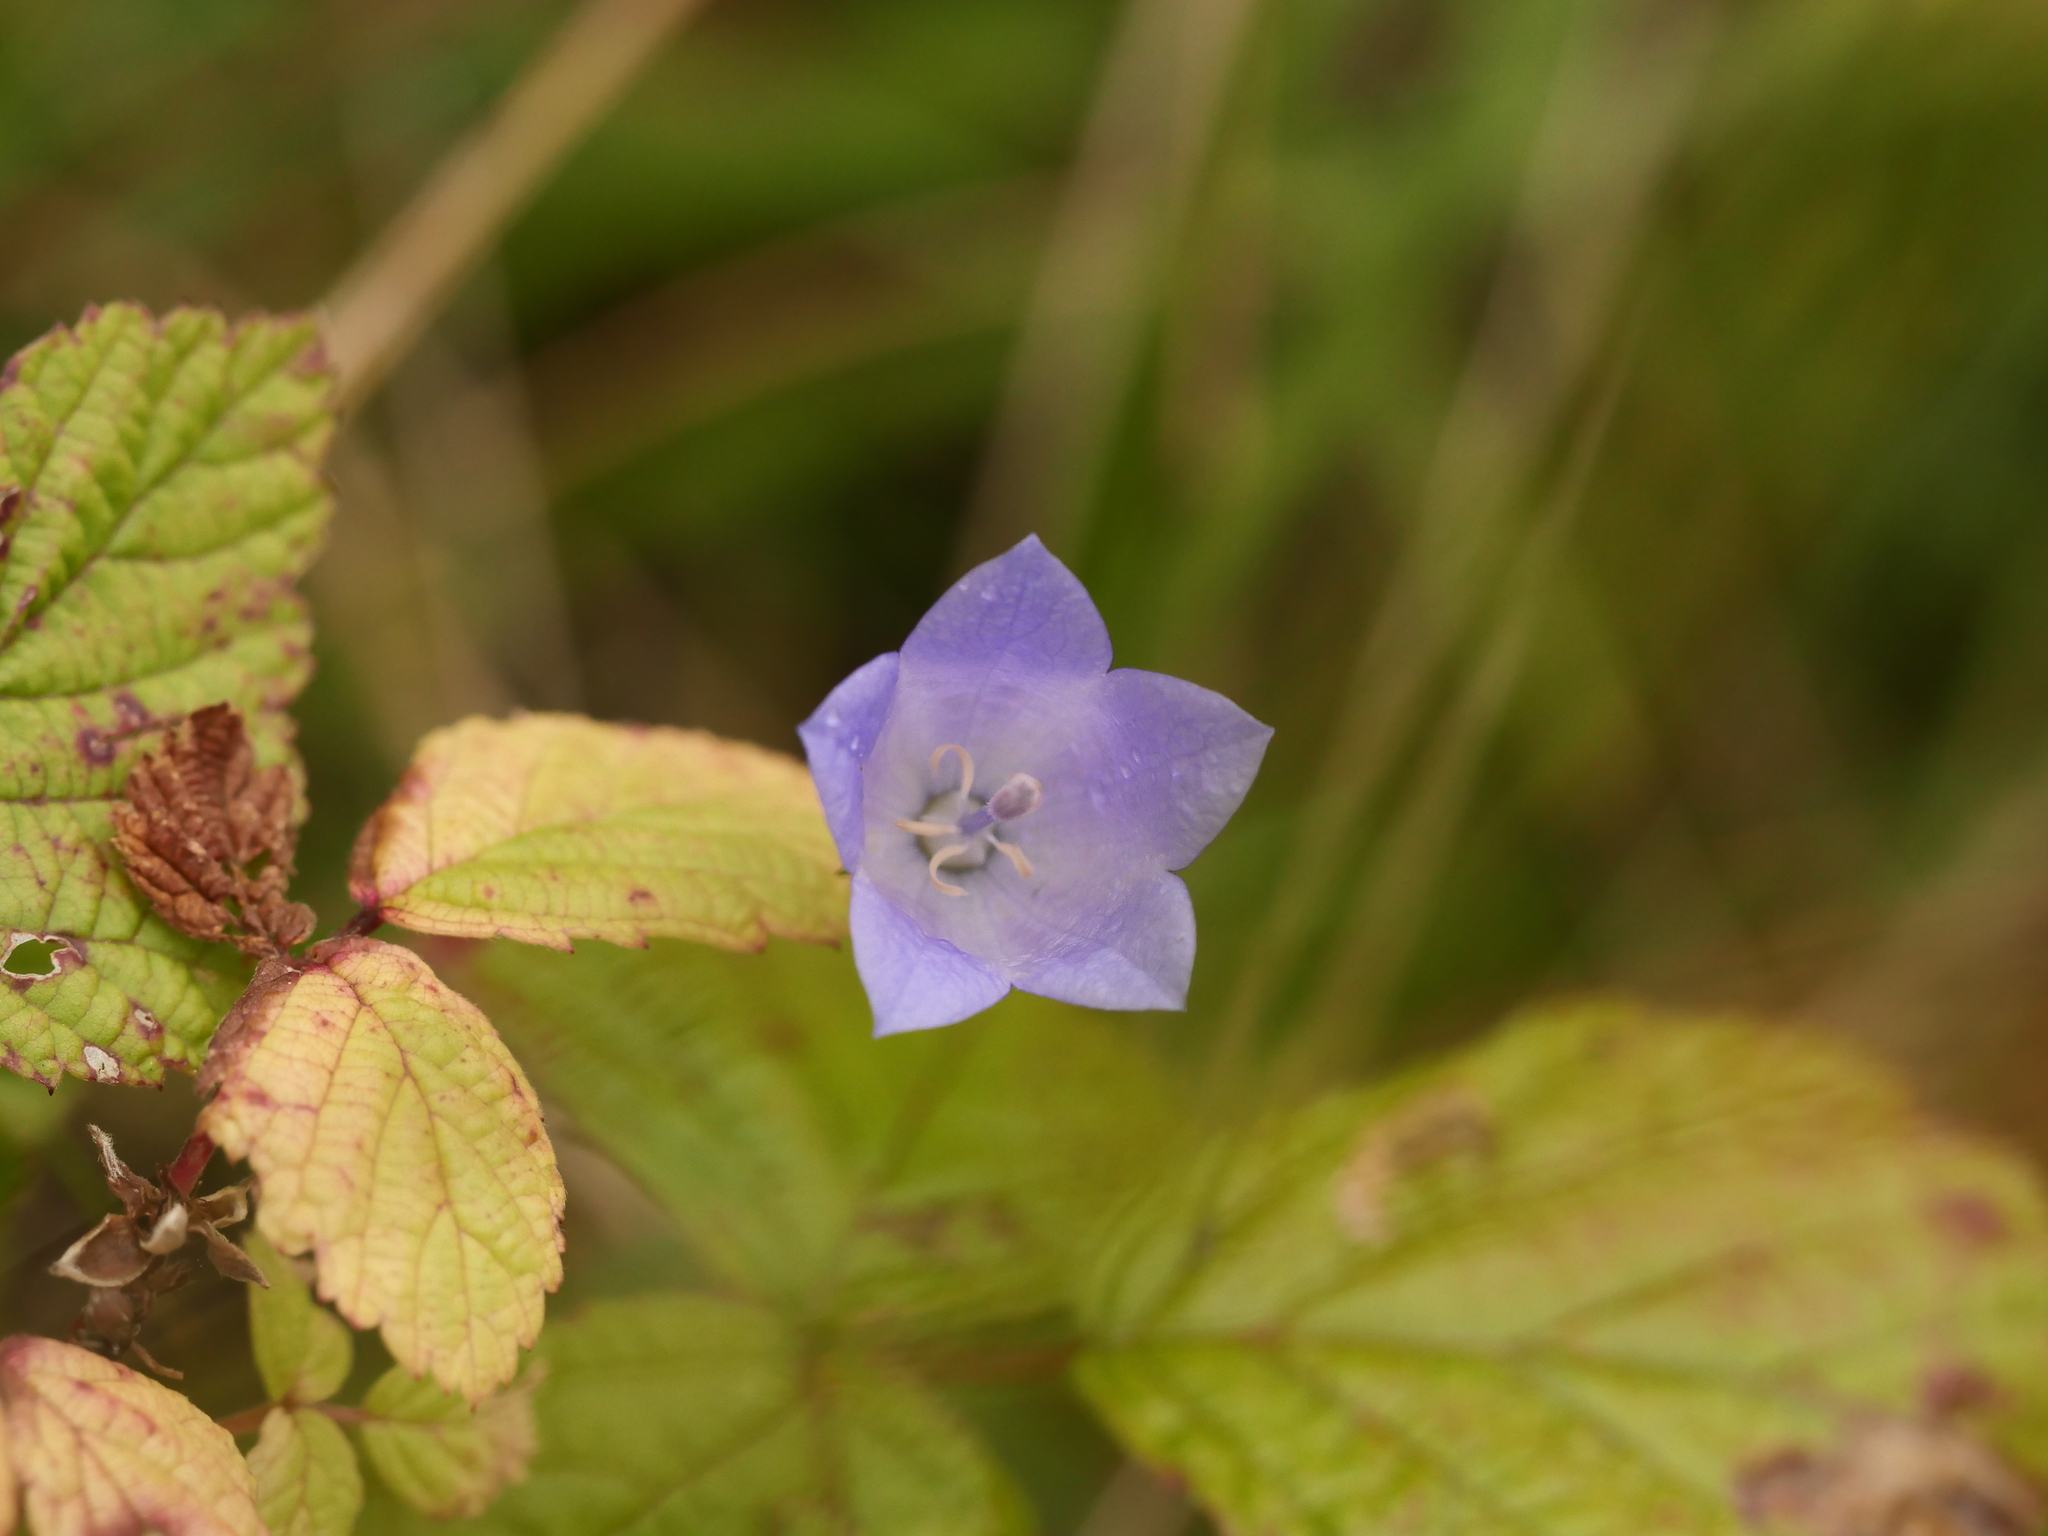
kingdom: Plantae
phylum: Tracheophyta
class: Magnoliopsida
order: Asterales
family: Campanulaceae
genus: Campanula
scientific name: Campanula rotundifolia
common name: Harebell
